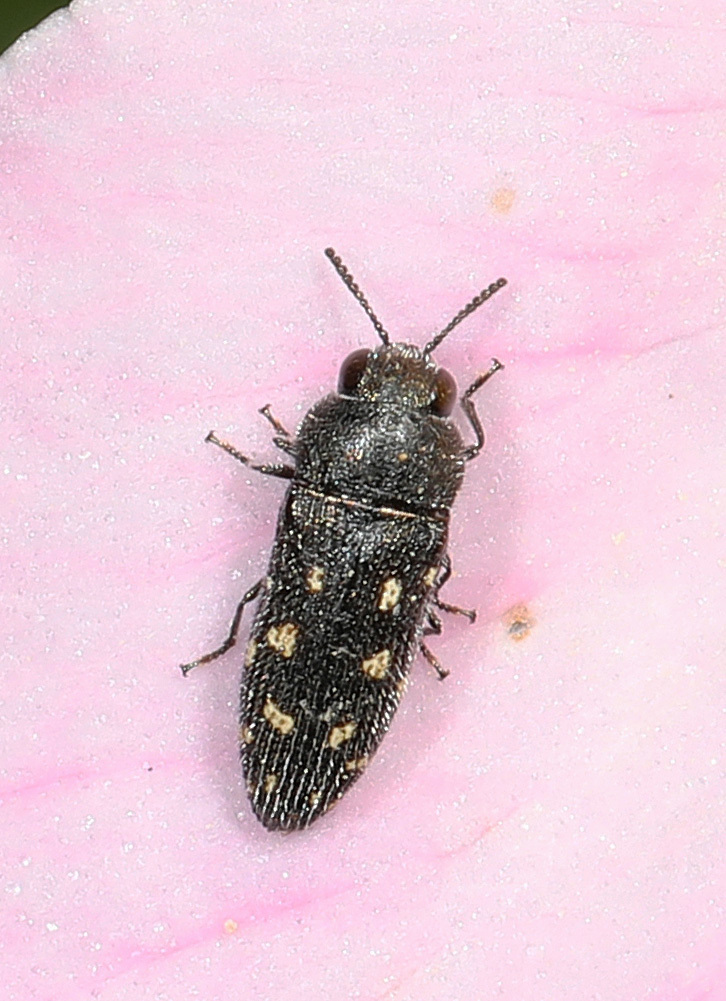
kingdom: Animalia
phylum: Arthropoda
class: Insecta
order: Coleoptera
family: Buprestidae
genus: Acmaeodera
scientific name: Acmaeodera tubulus
